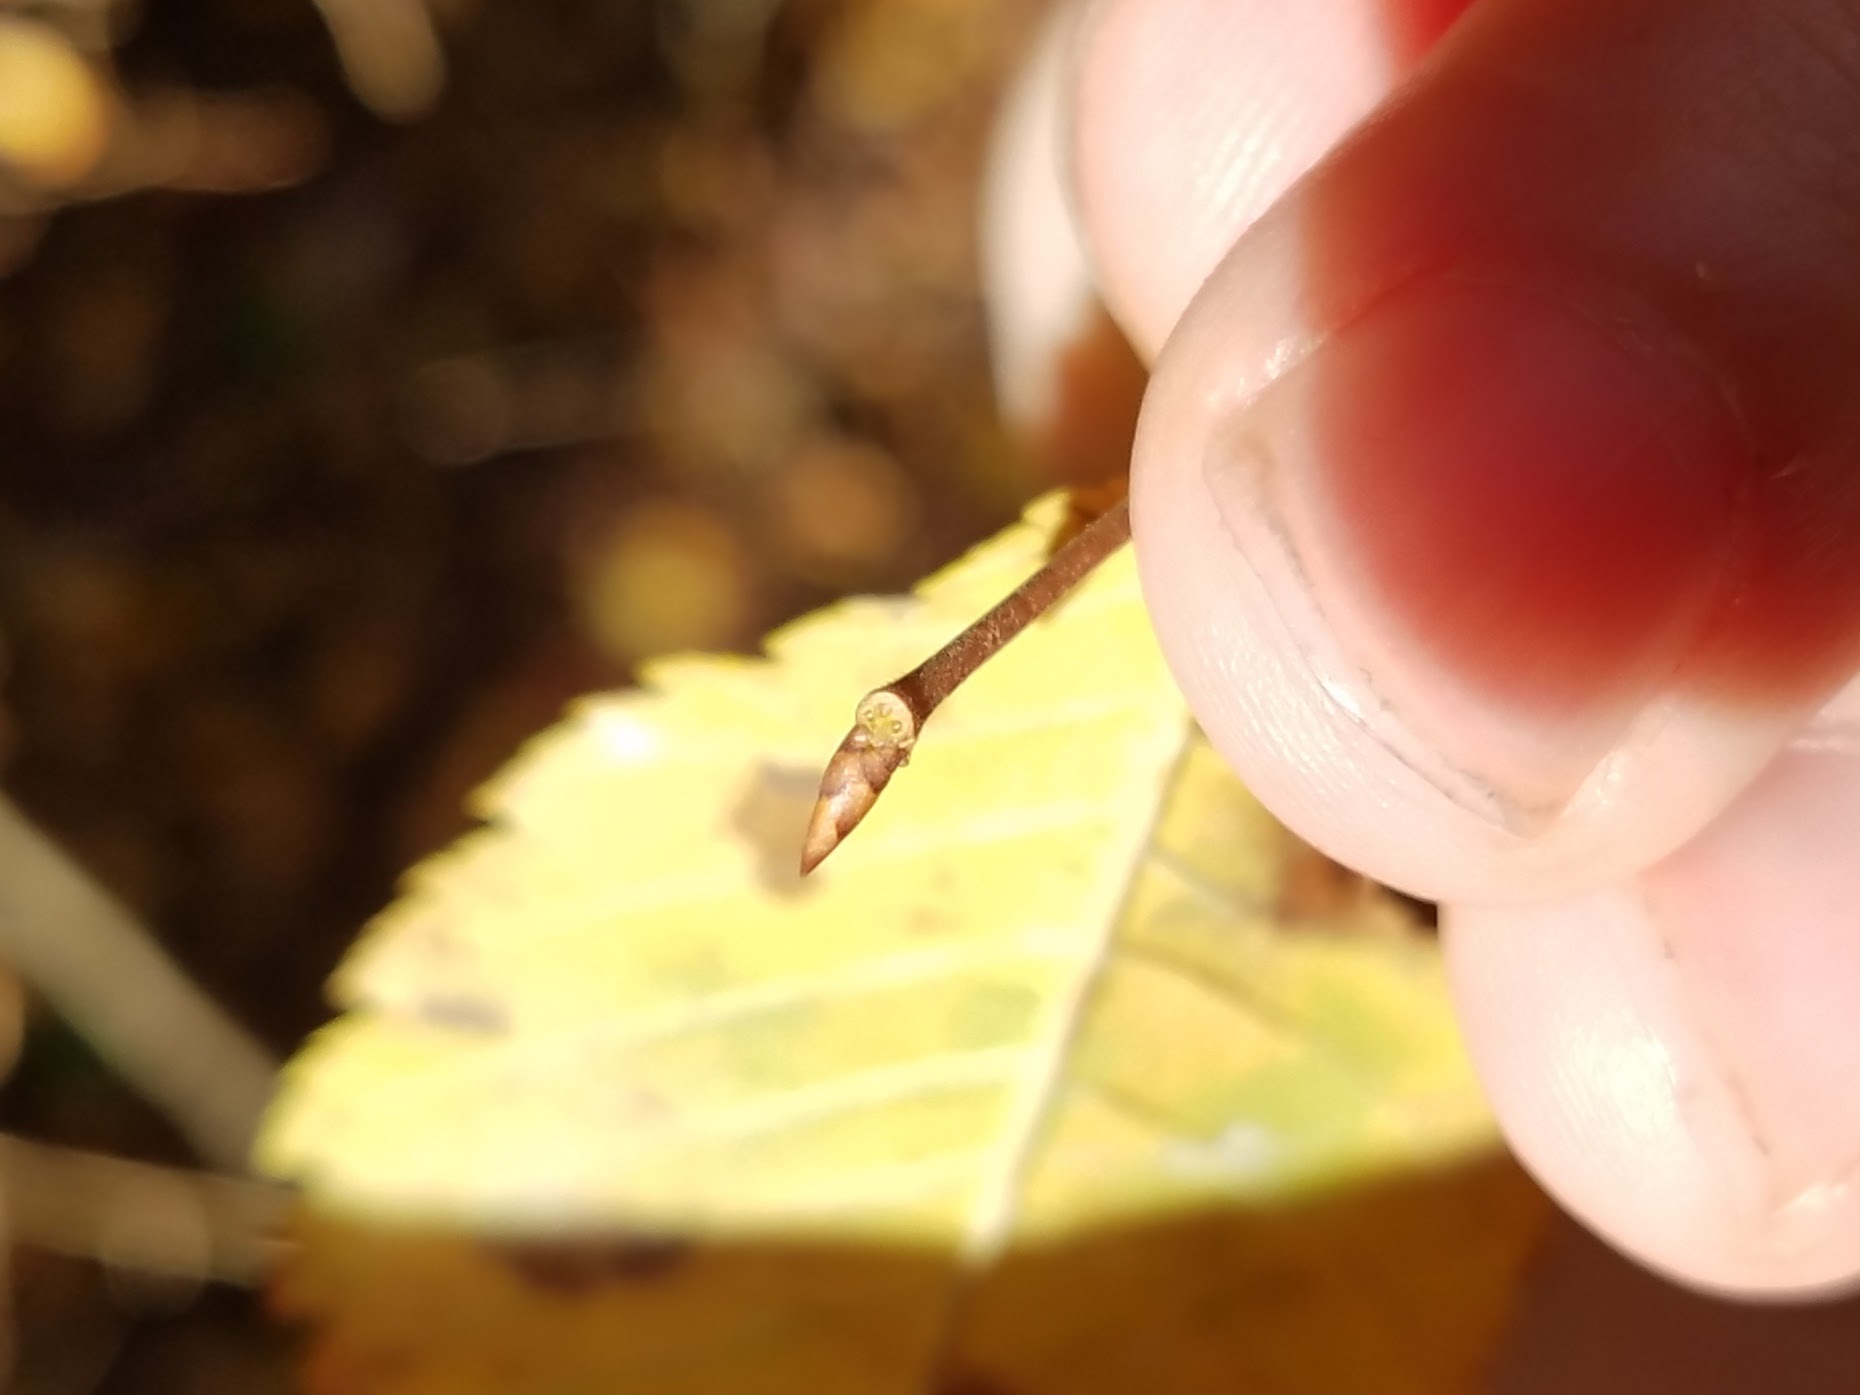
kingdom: Plantae
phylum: Tracheophyta
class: Magnoliopsida
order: Rosales
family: Ulmaceae
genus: Ulmus
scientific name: Ulmus alata
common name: Winged elm
